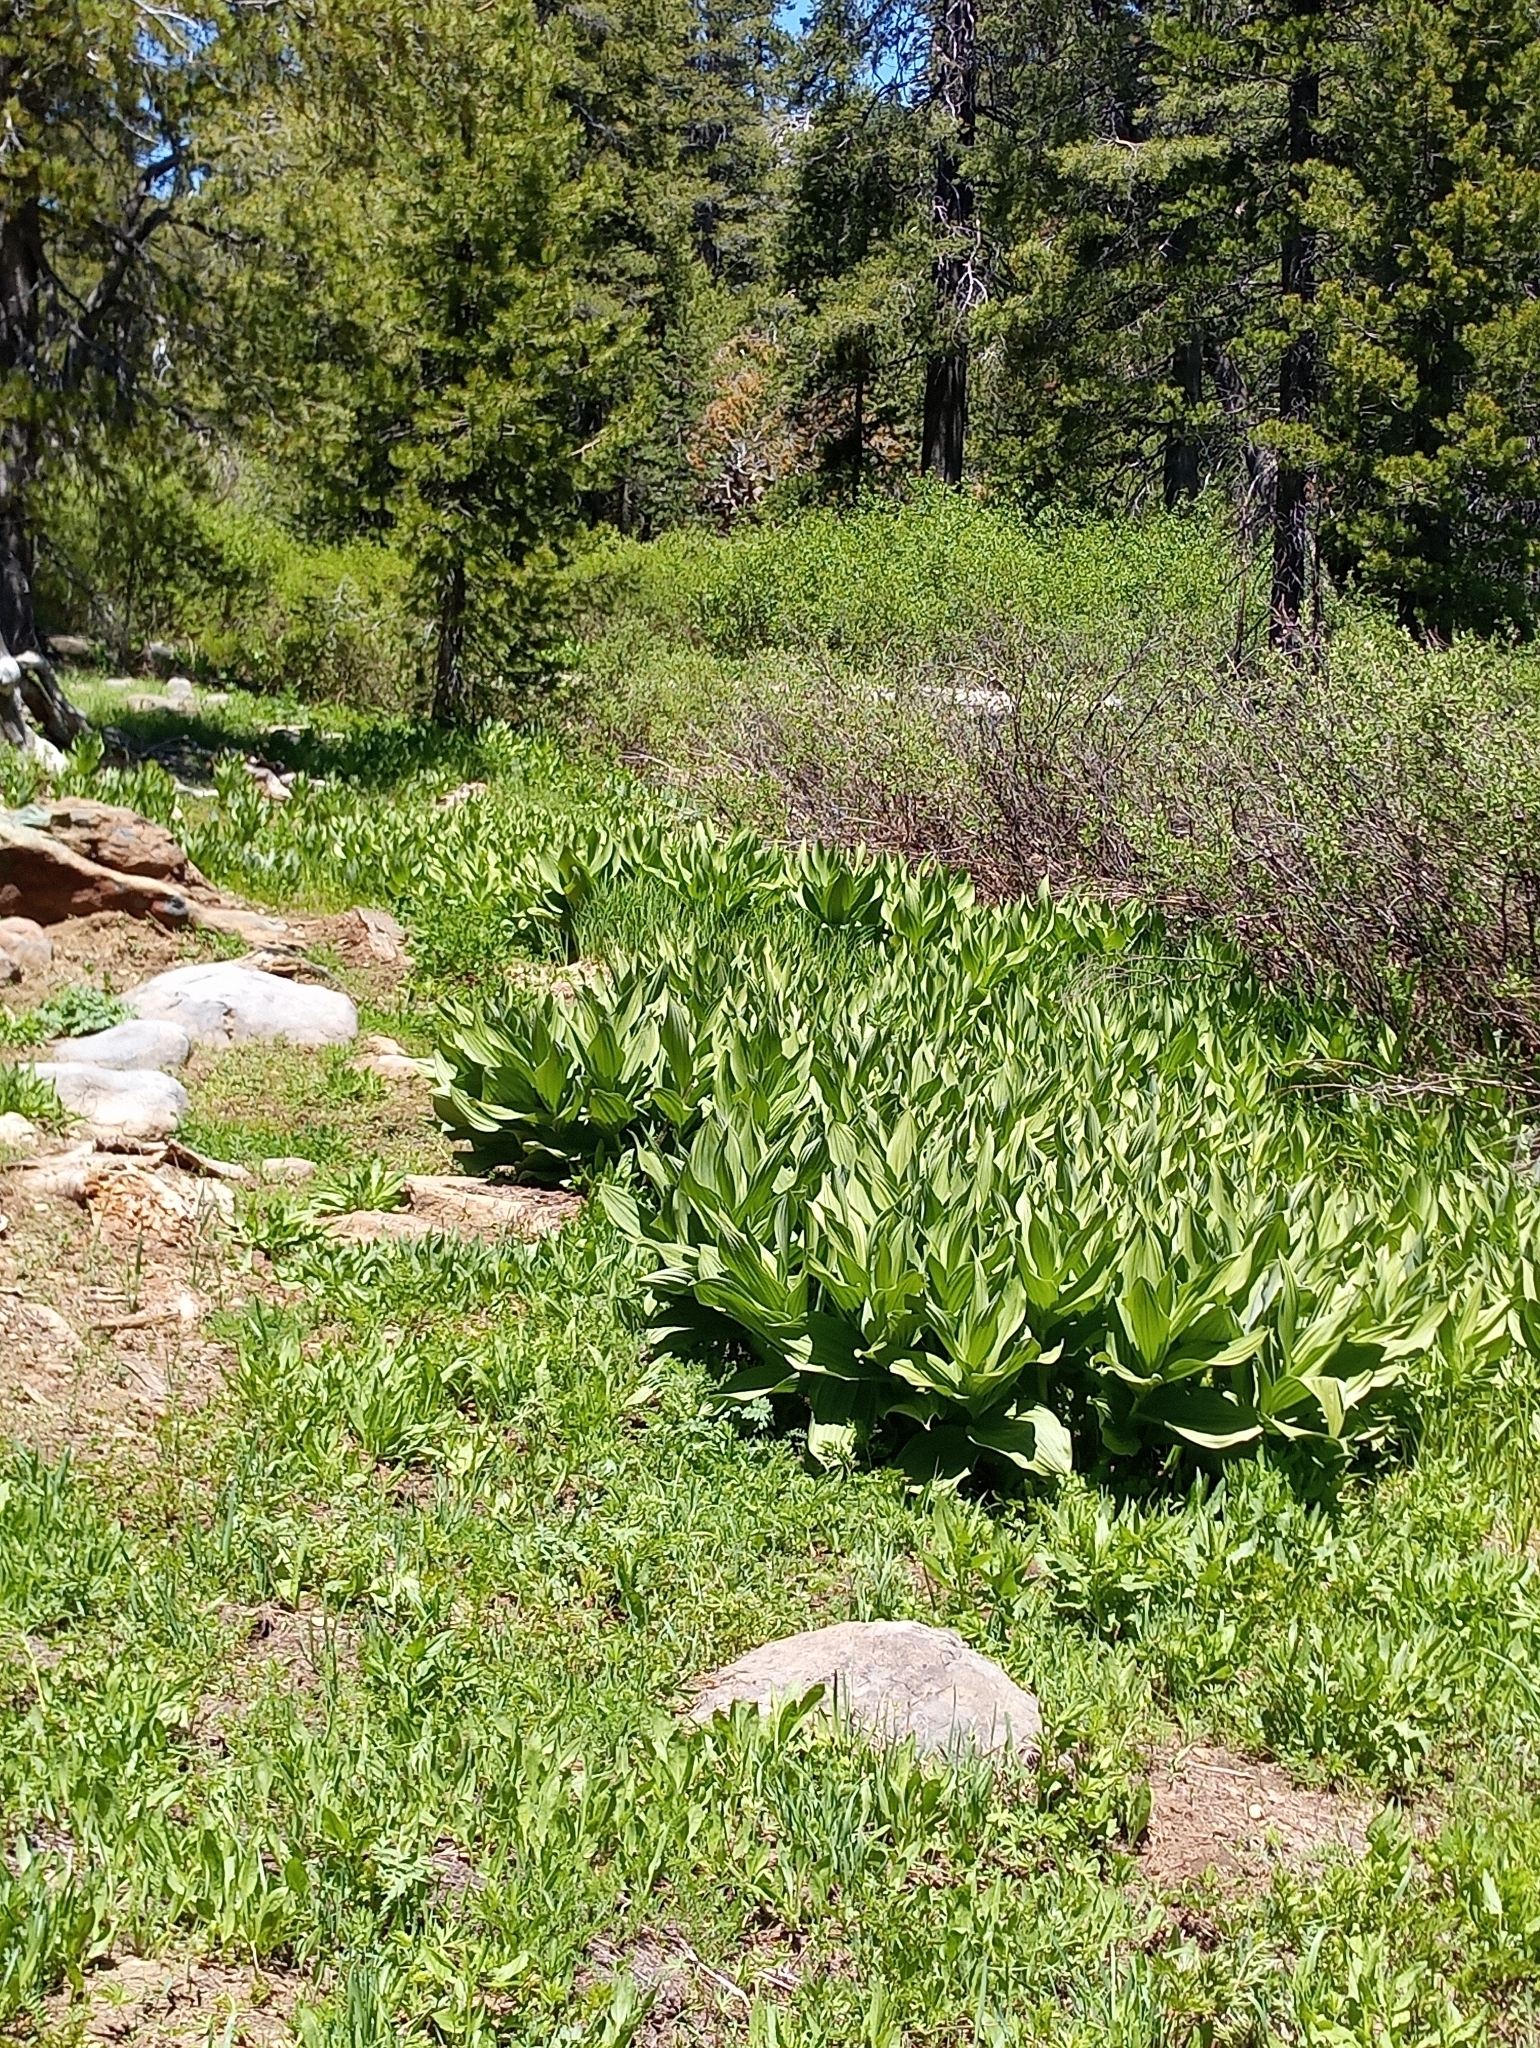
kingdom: Plantae
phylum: Tracheophyta
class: Liliopsida
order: Liliales
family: Melanthiaceae
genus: Veratrum
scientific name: Veratrum californicum
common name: California veratrum
